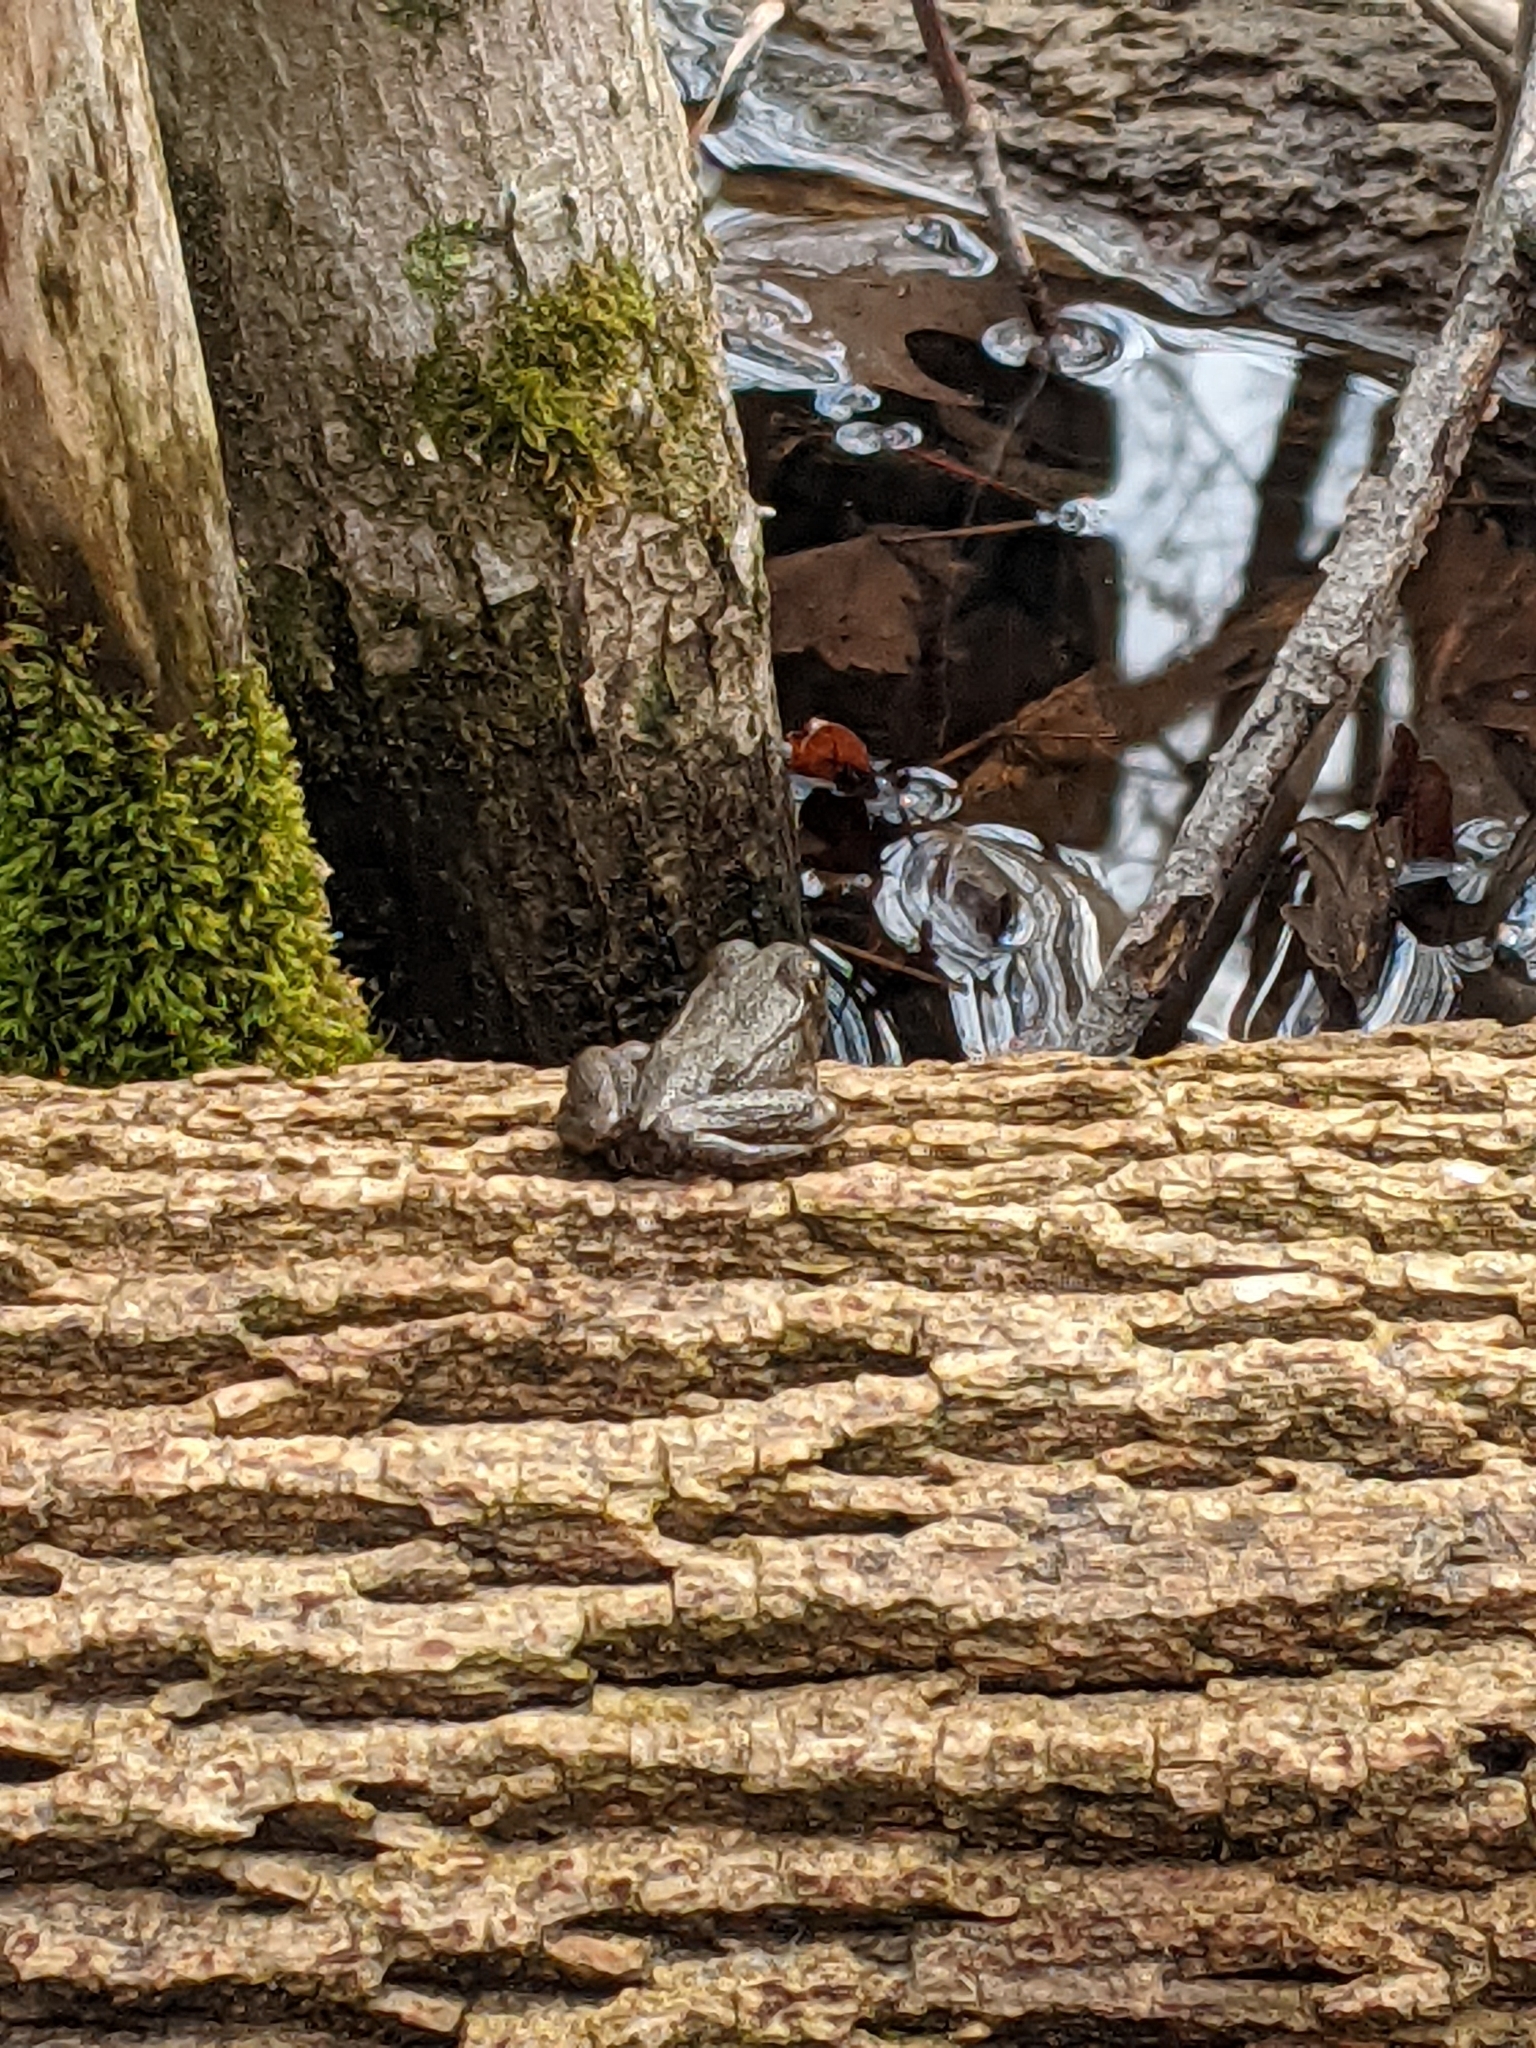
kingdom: Animalia
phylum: Chordata
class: Amphibia
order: Anura
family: Ranidae
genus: Lithobates
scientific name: Lithobates sylvaticus
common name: Wood frog
